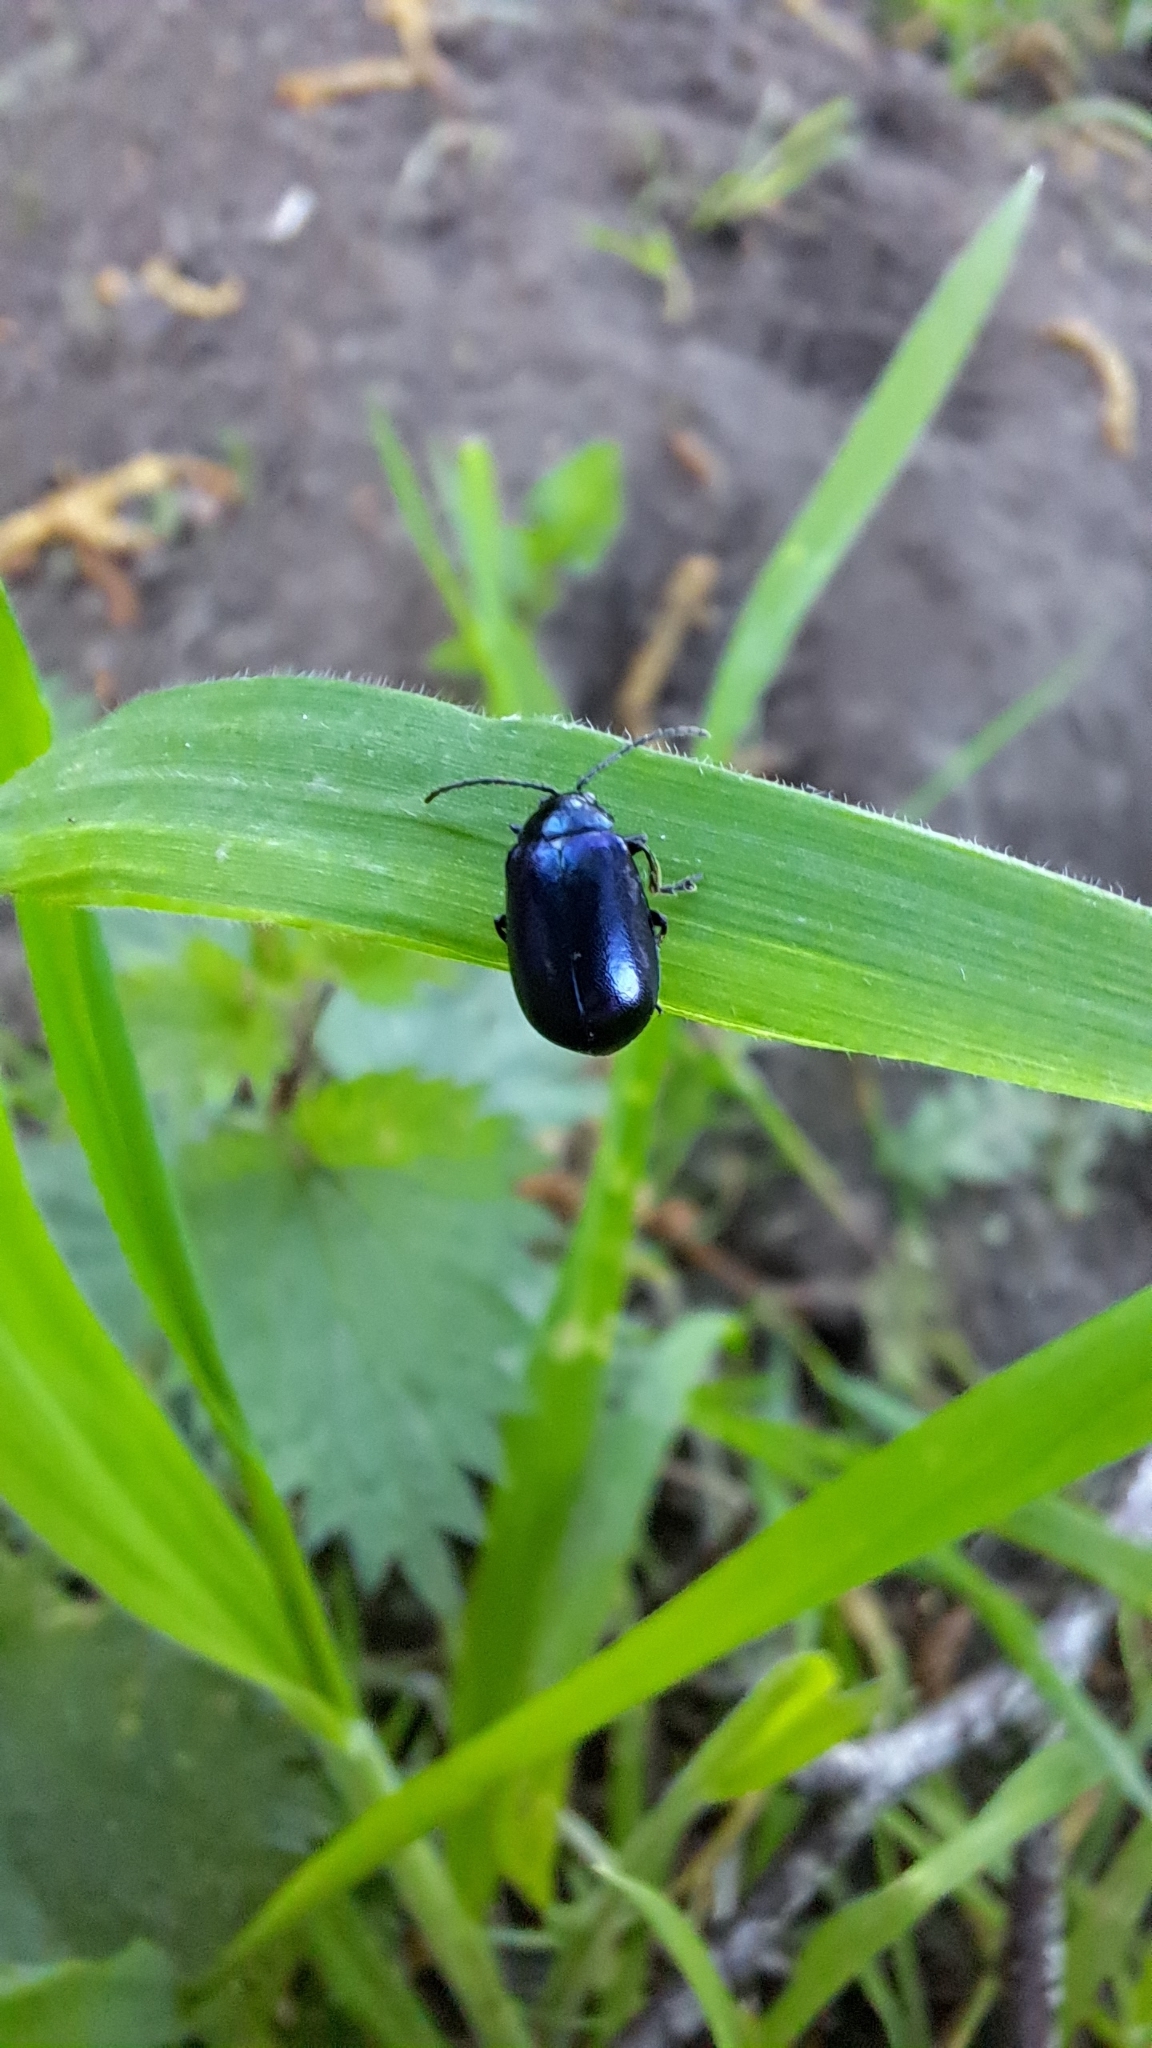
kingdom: Animalia
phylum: Arthropoda
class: Insecta
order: Coleoptera
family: Chrysomelidae
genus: Agelastica
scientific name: Agelastica alni
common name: Alder leaf beetle
